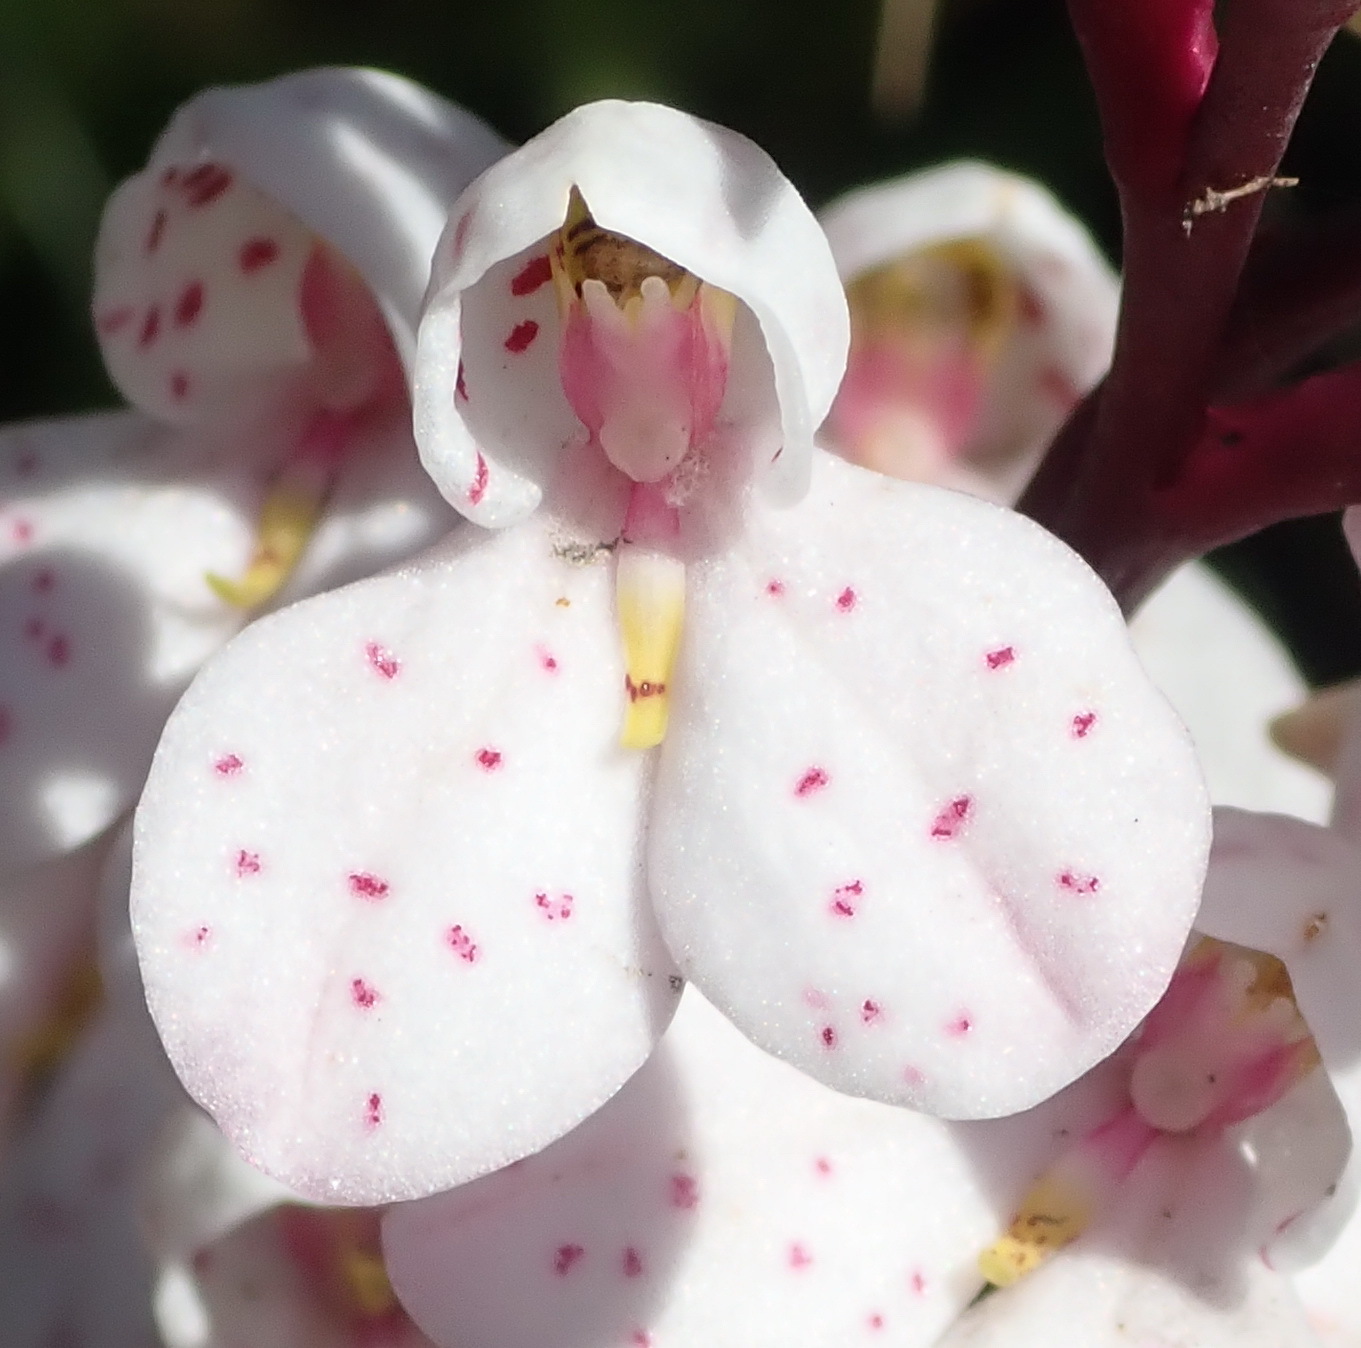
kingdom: Plantae
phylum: Tracheophyta
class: Liliopsida
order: Asparagales
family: Orchidaceae
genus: Disa
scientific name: Disa tripetaloides
